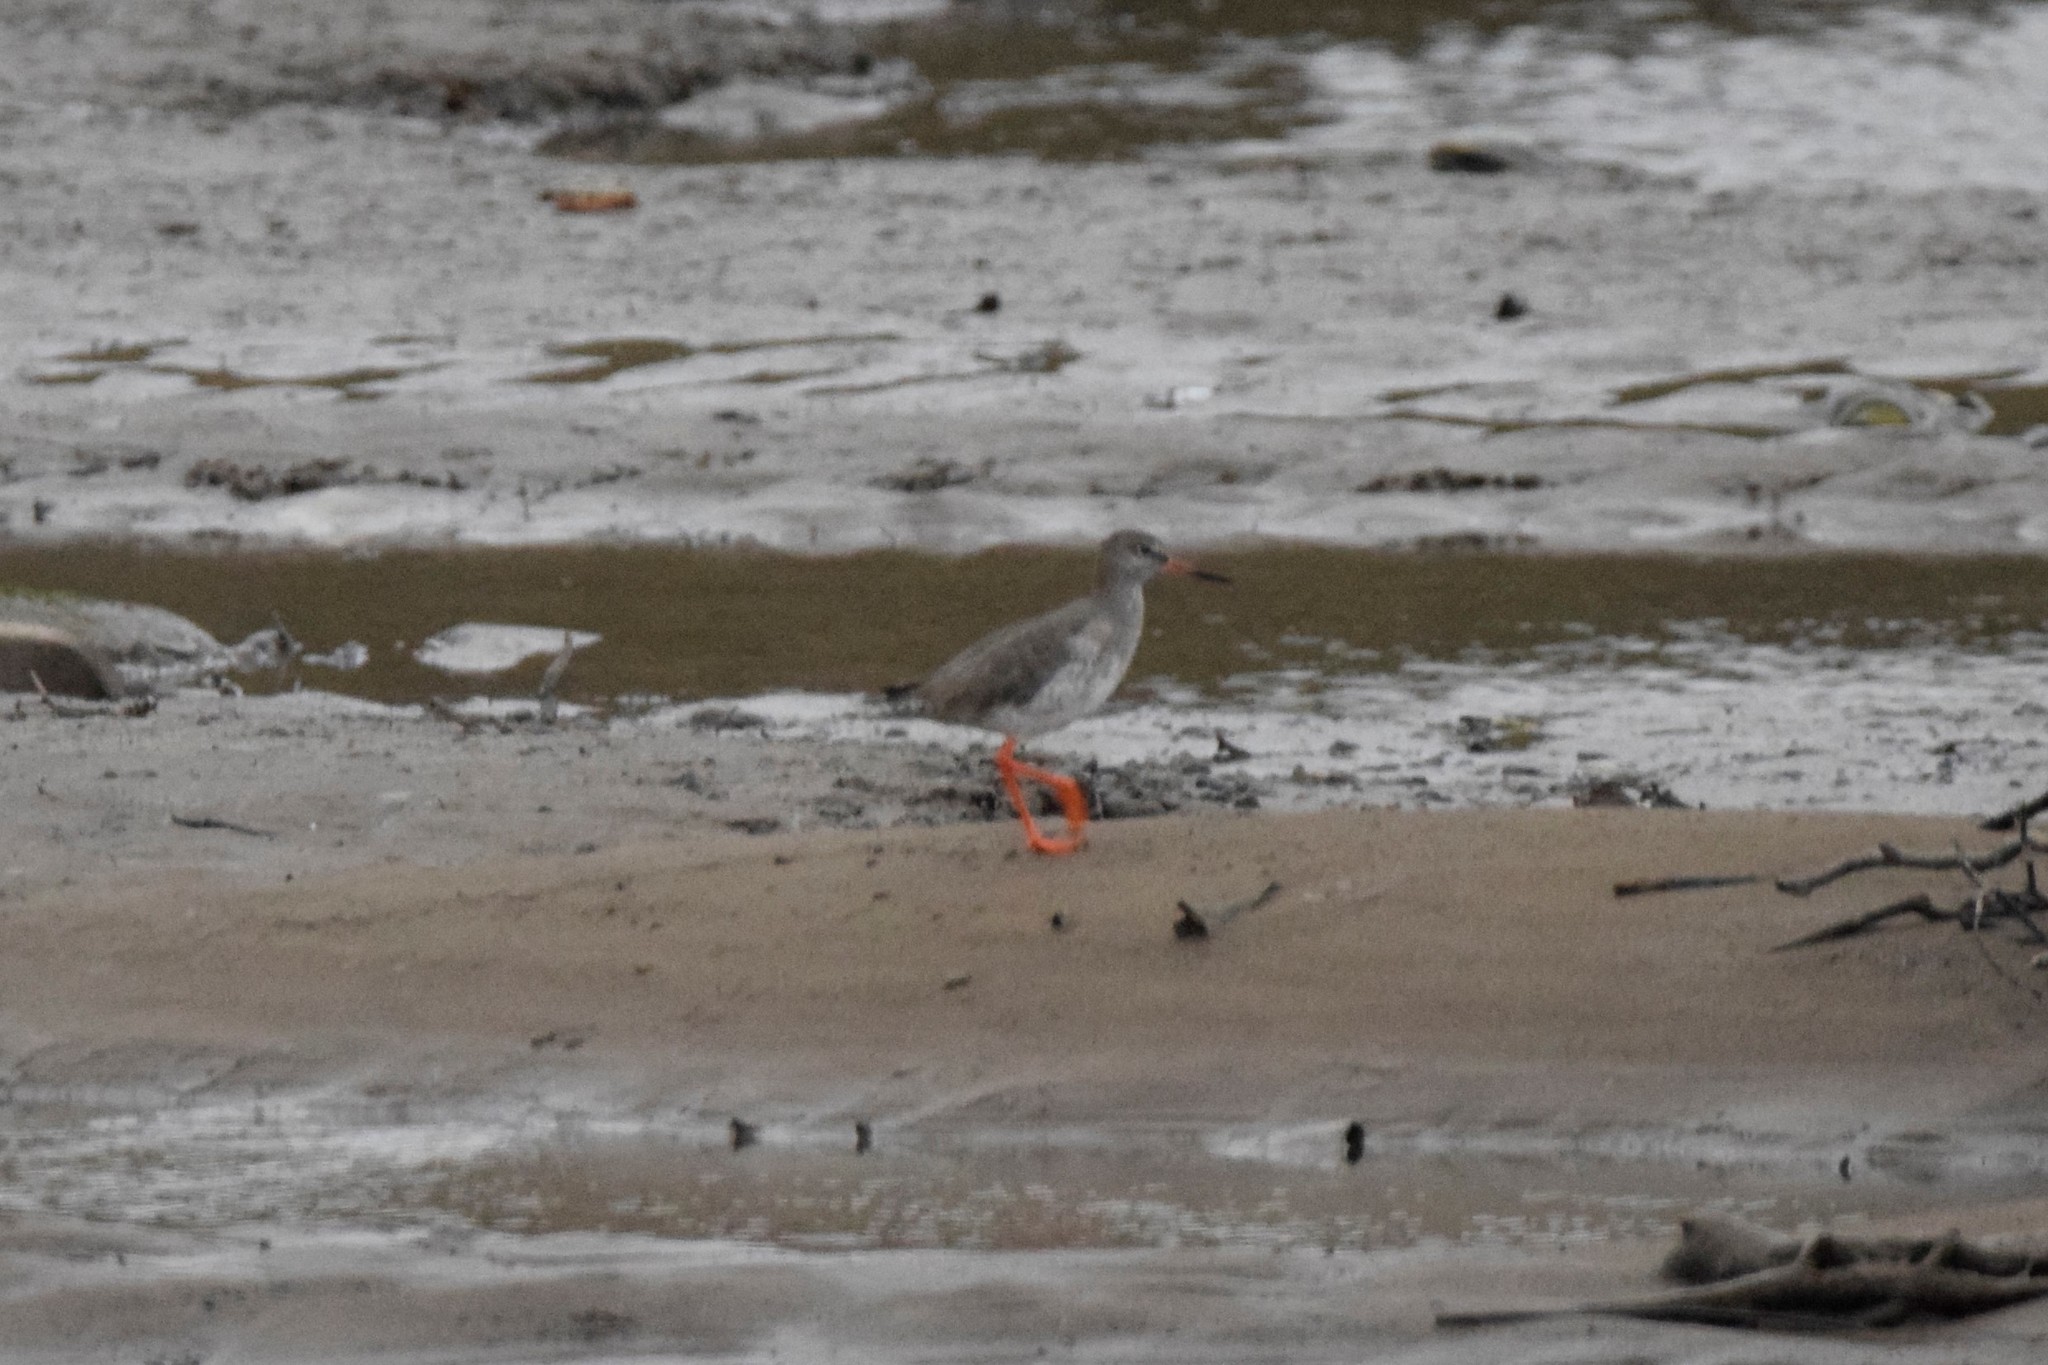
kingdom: Animalia
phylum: Chordata
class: Aves
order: Charadriiformes
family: Scolopacidae
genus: Tringa
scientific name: Tringa totanus
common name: Common redshank
